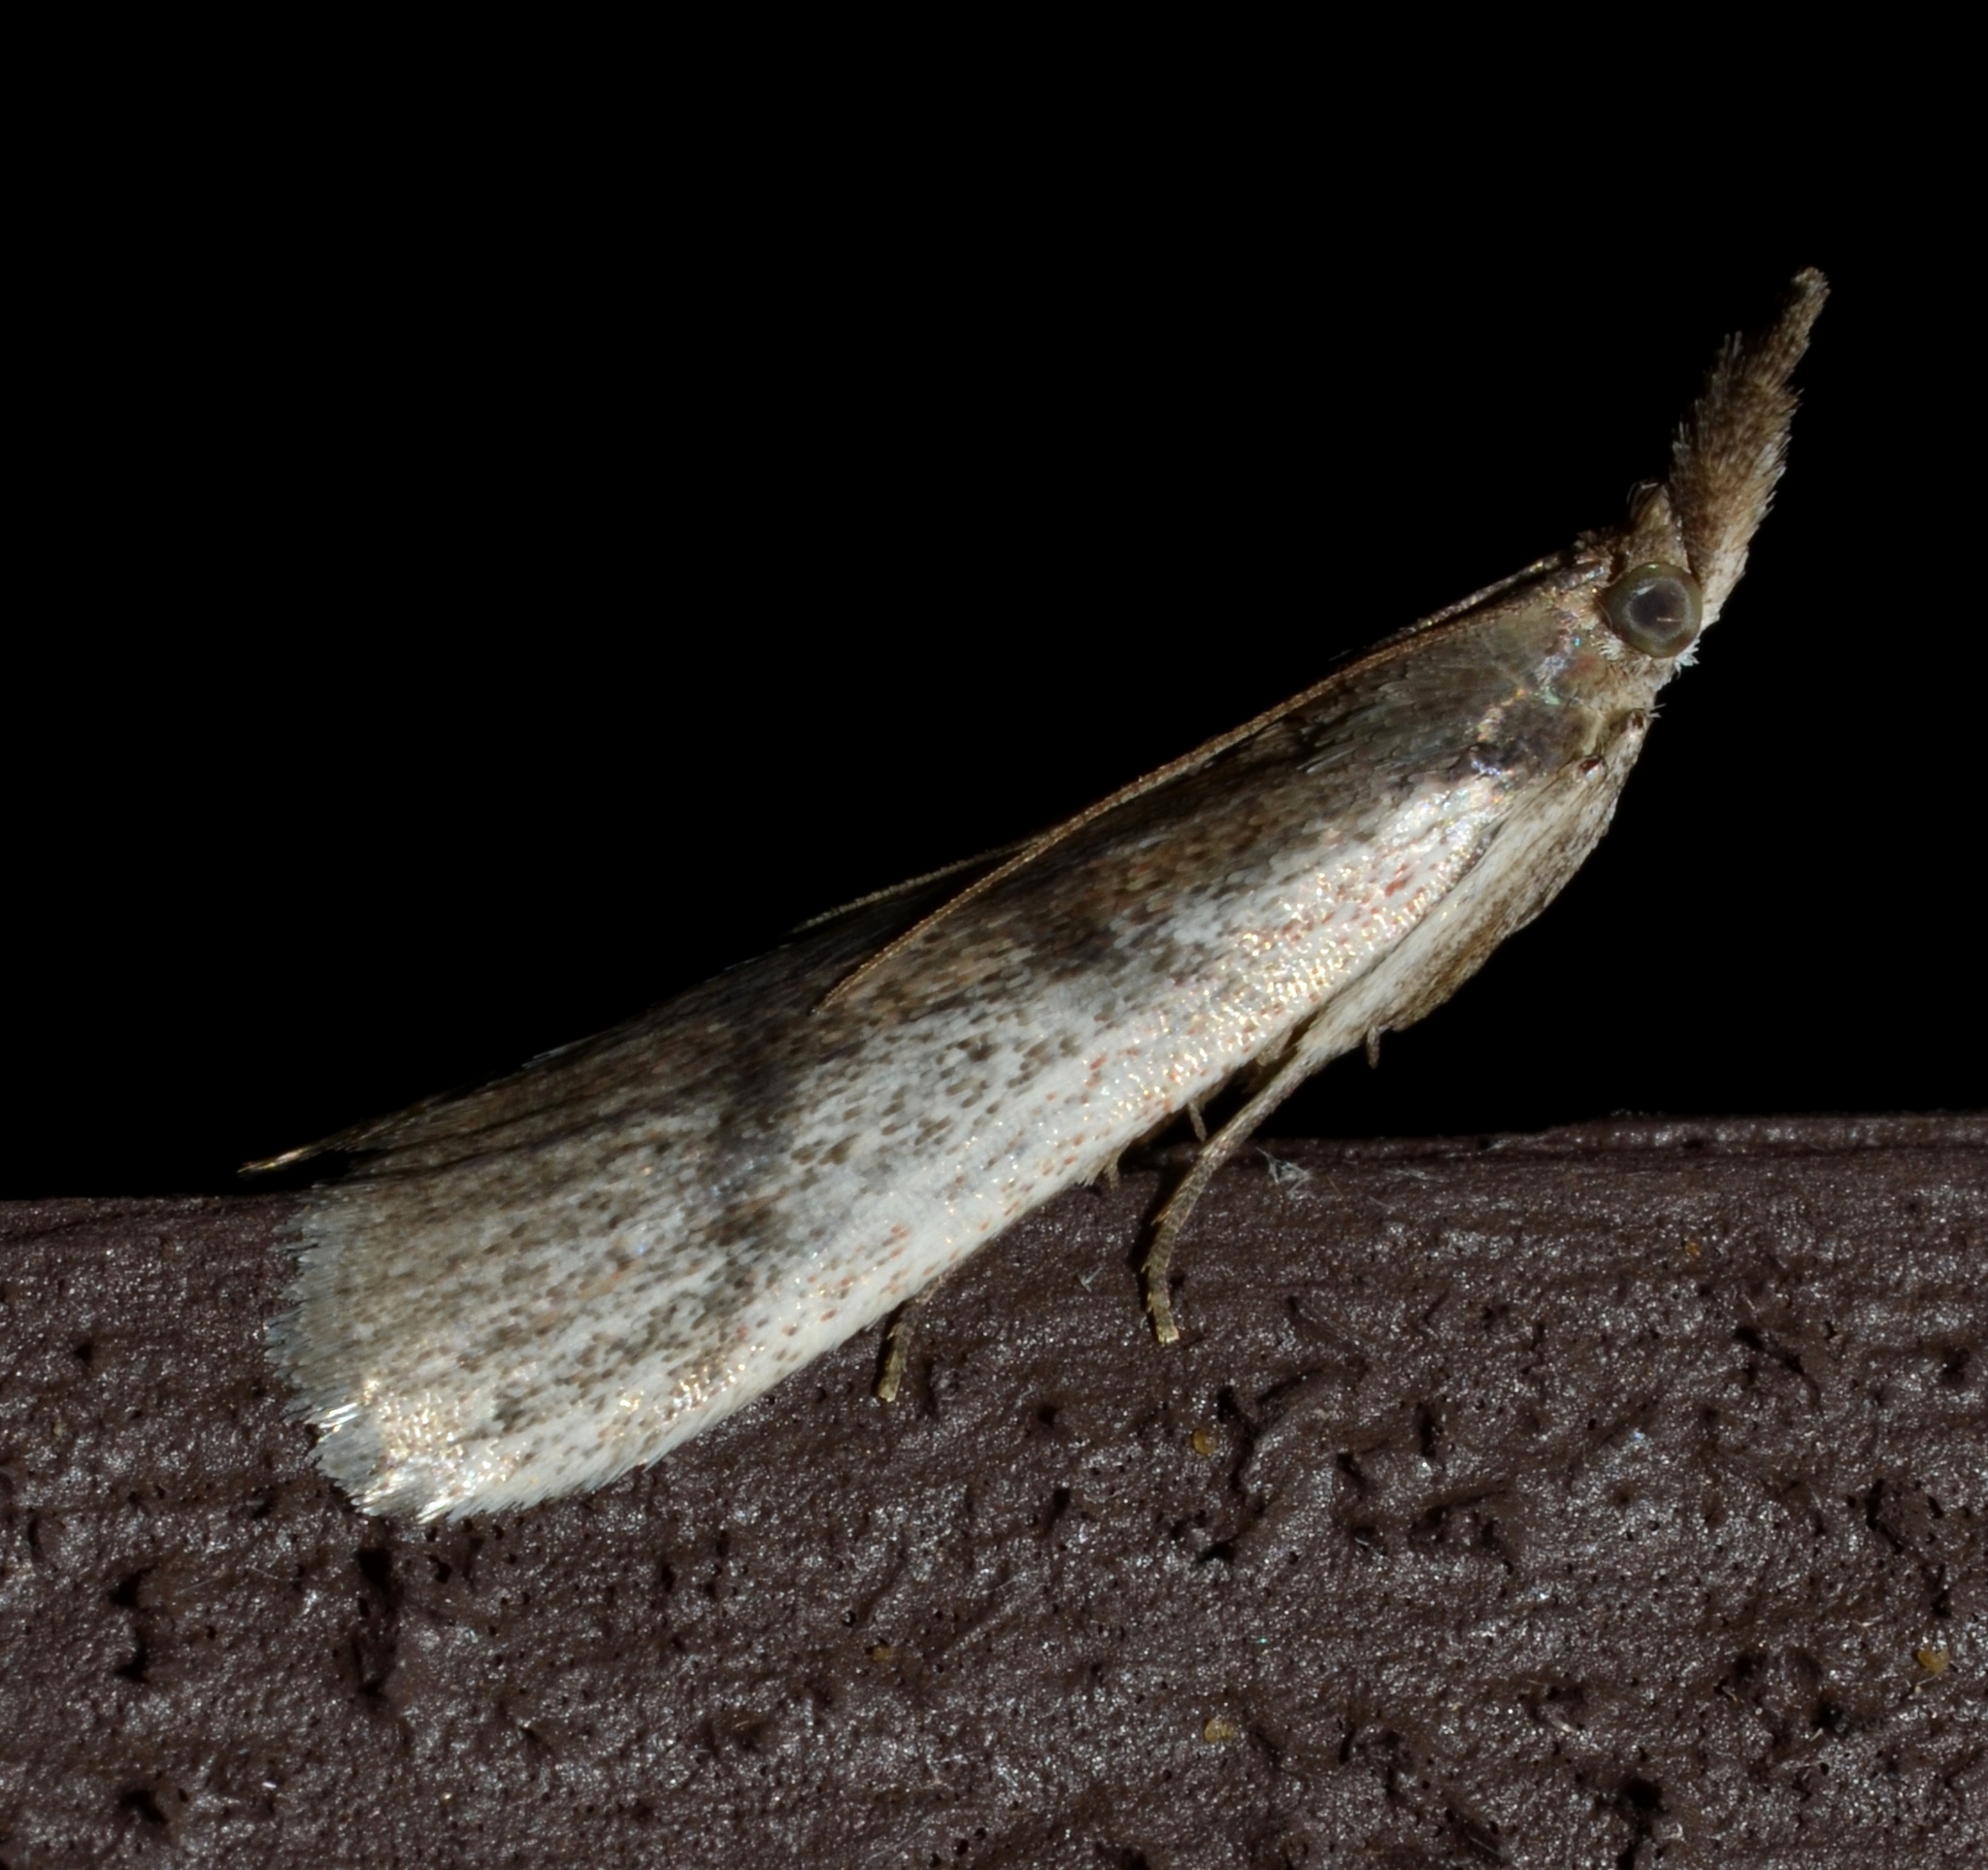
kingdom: Animalia
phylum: Arthropoda
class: Insecta
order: Lepidoptera
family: Pyralidae
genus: Peoria
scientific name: Peoria longipalpella
